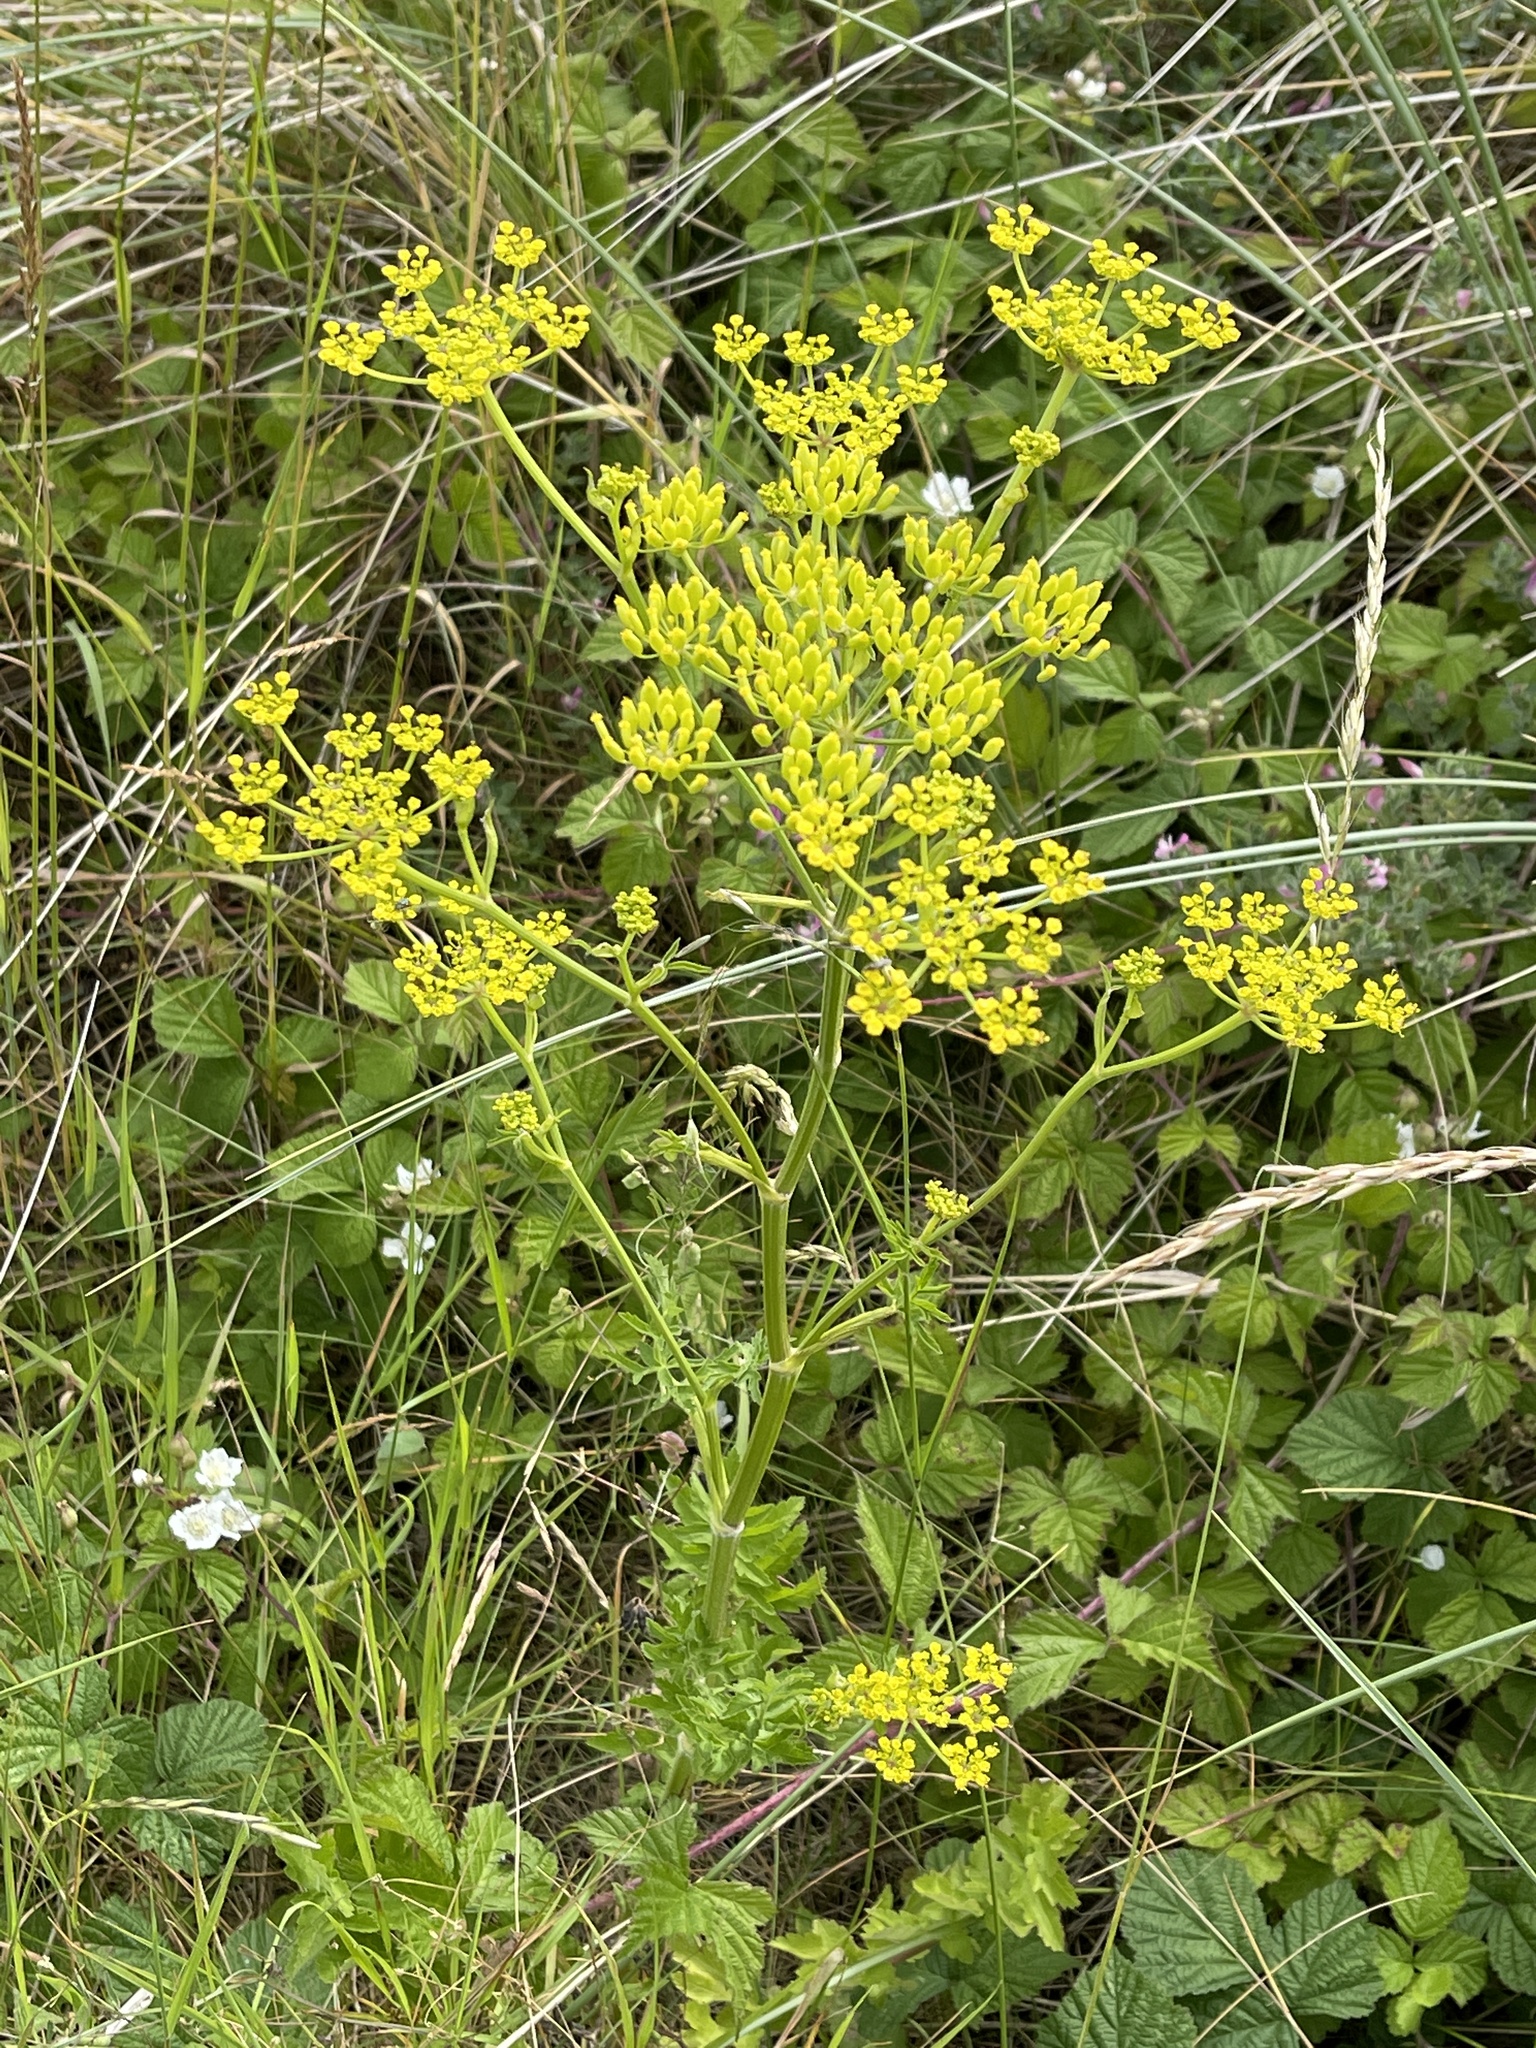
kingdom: Plantae
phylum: Tracheophyta
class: Magnoliopsida
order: Apiales
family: Apiaceae
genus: Pastinaca
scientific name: Pastinaca sativa
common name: Wild parsnip
